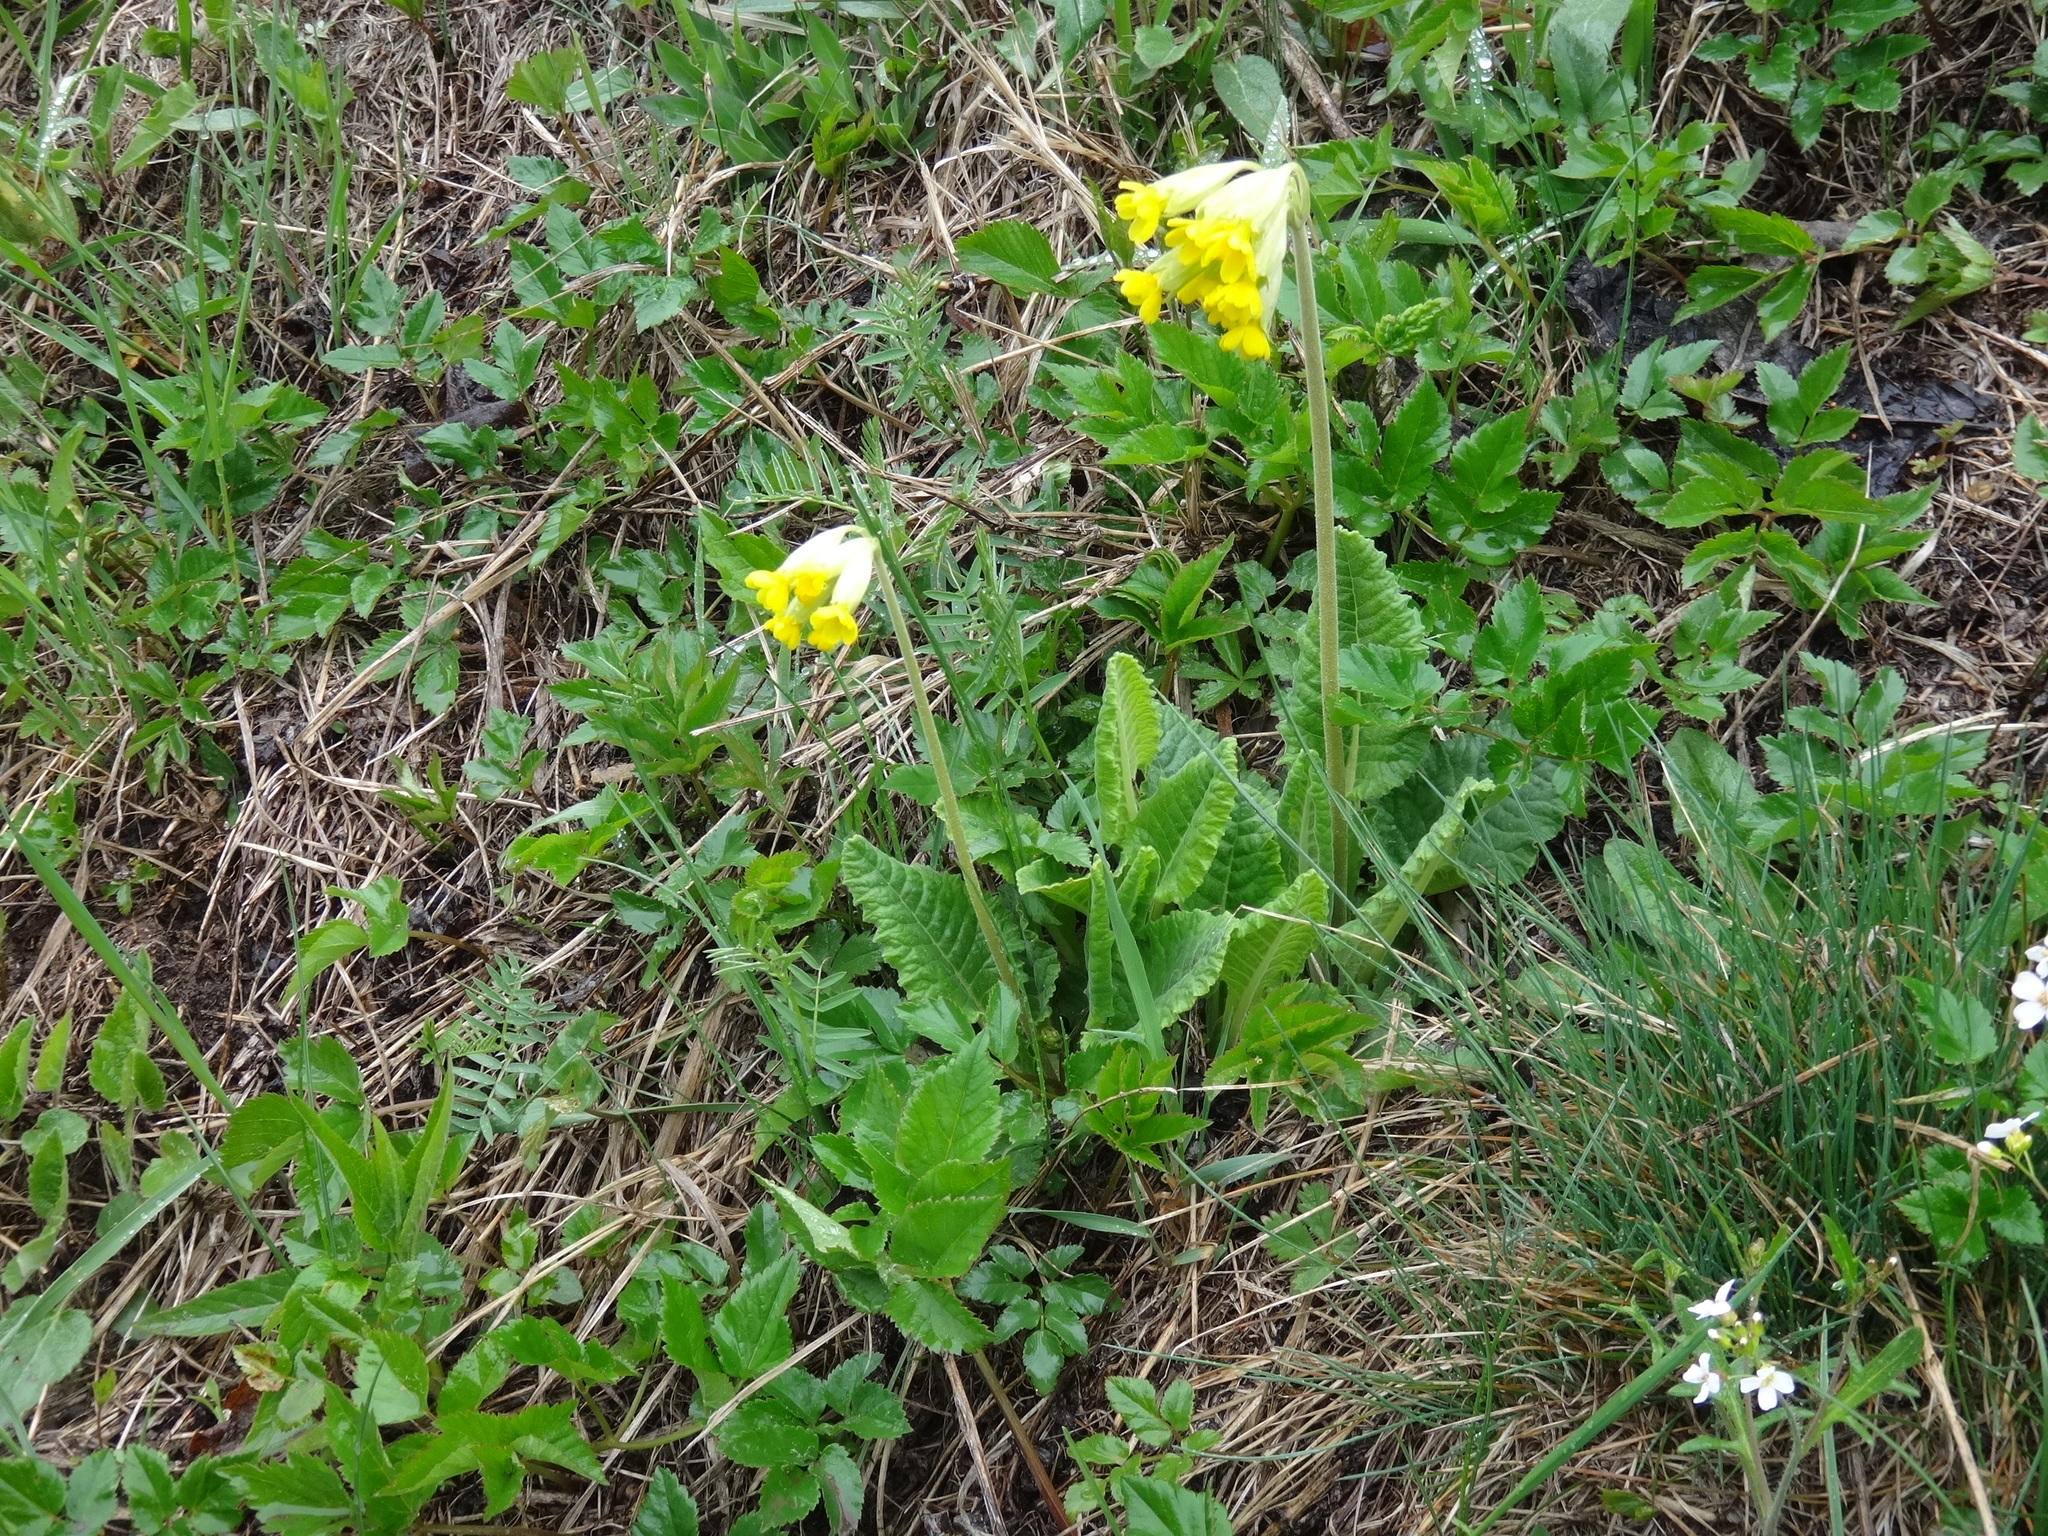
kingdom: Plantae
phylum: Tracheophyta
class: Magnoliopsida
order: Ericales
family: Primulaceae
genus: Primula
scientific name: Primula veris
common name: Cowslip
